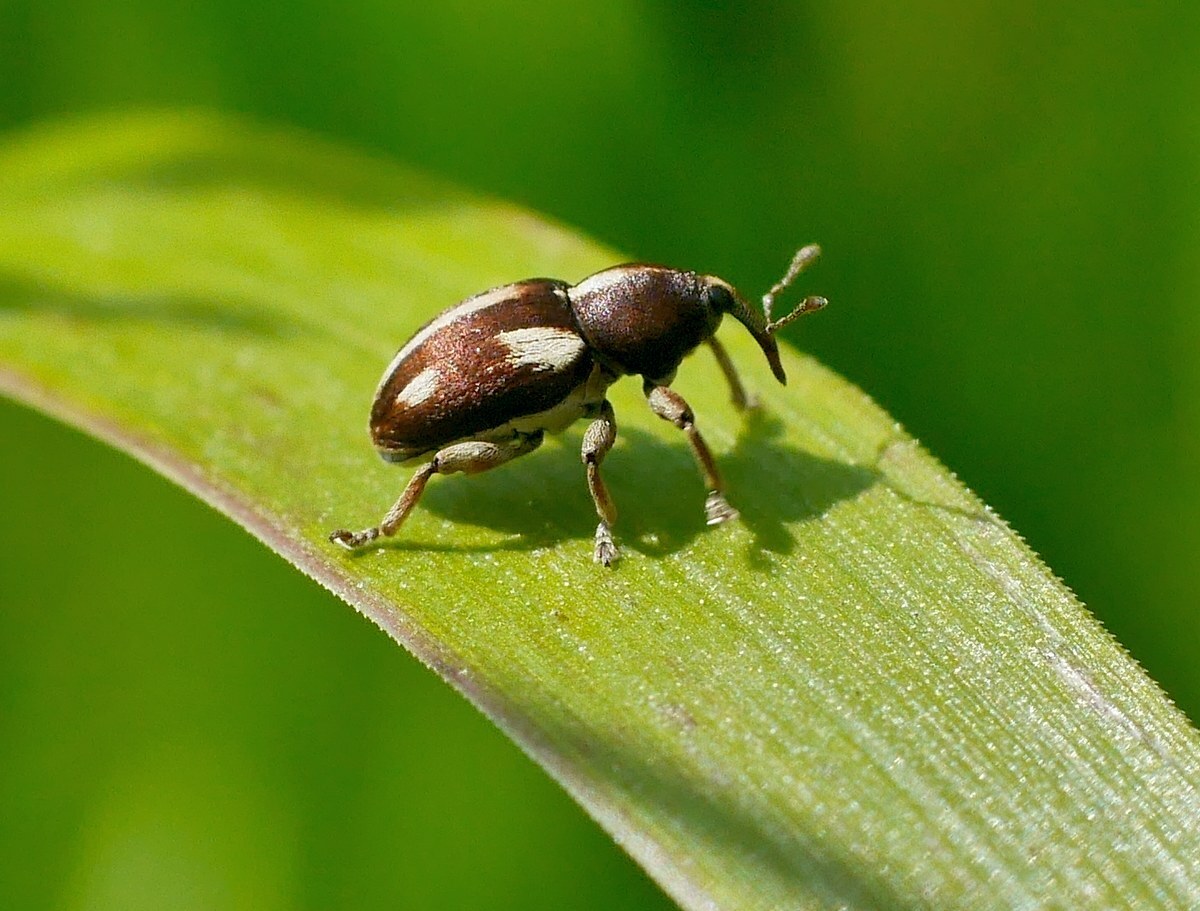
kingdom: Animalia
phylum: Arthropoda
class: Insecta
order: Coleoptera
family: Curculionidae
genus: Tychius
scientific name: Tychius quinquepunctatus
